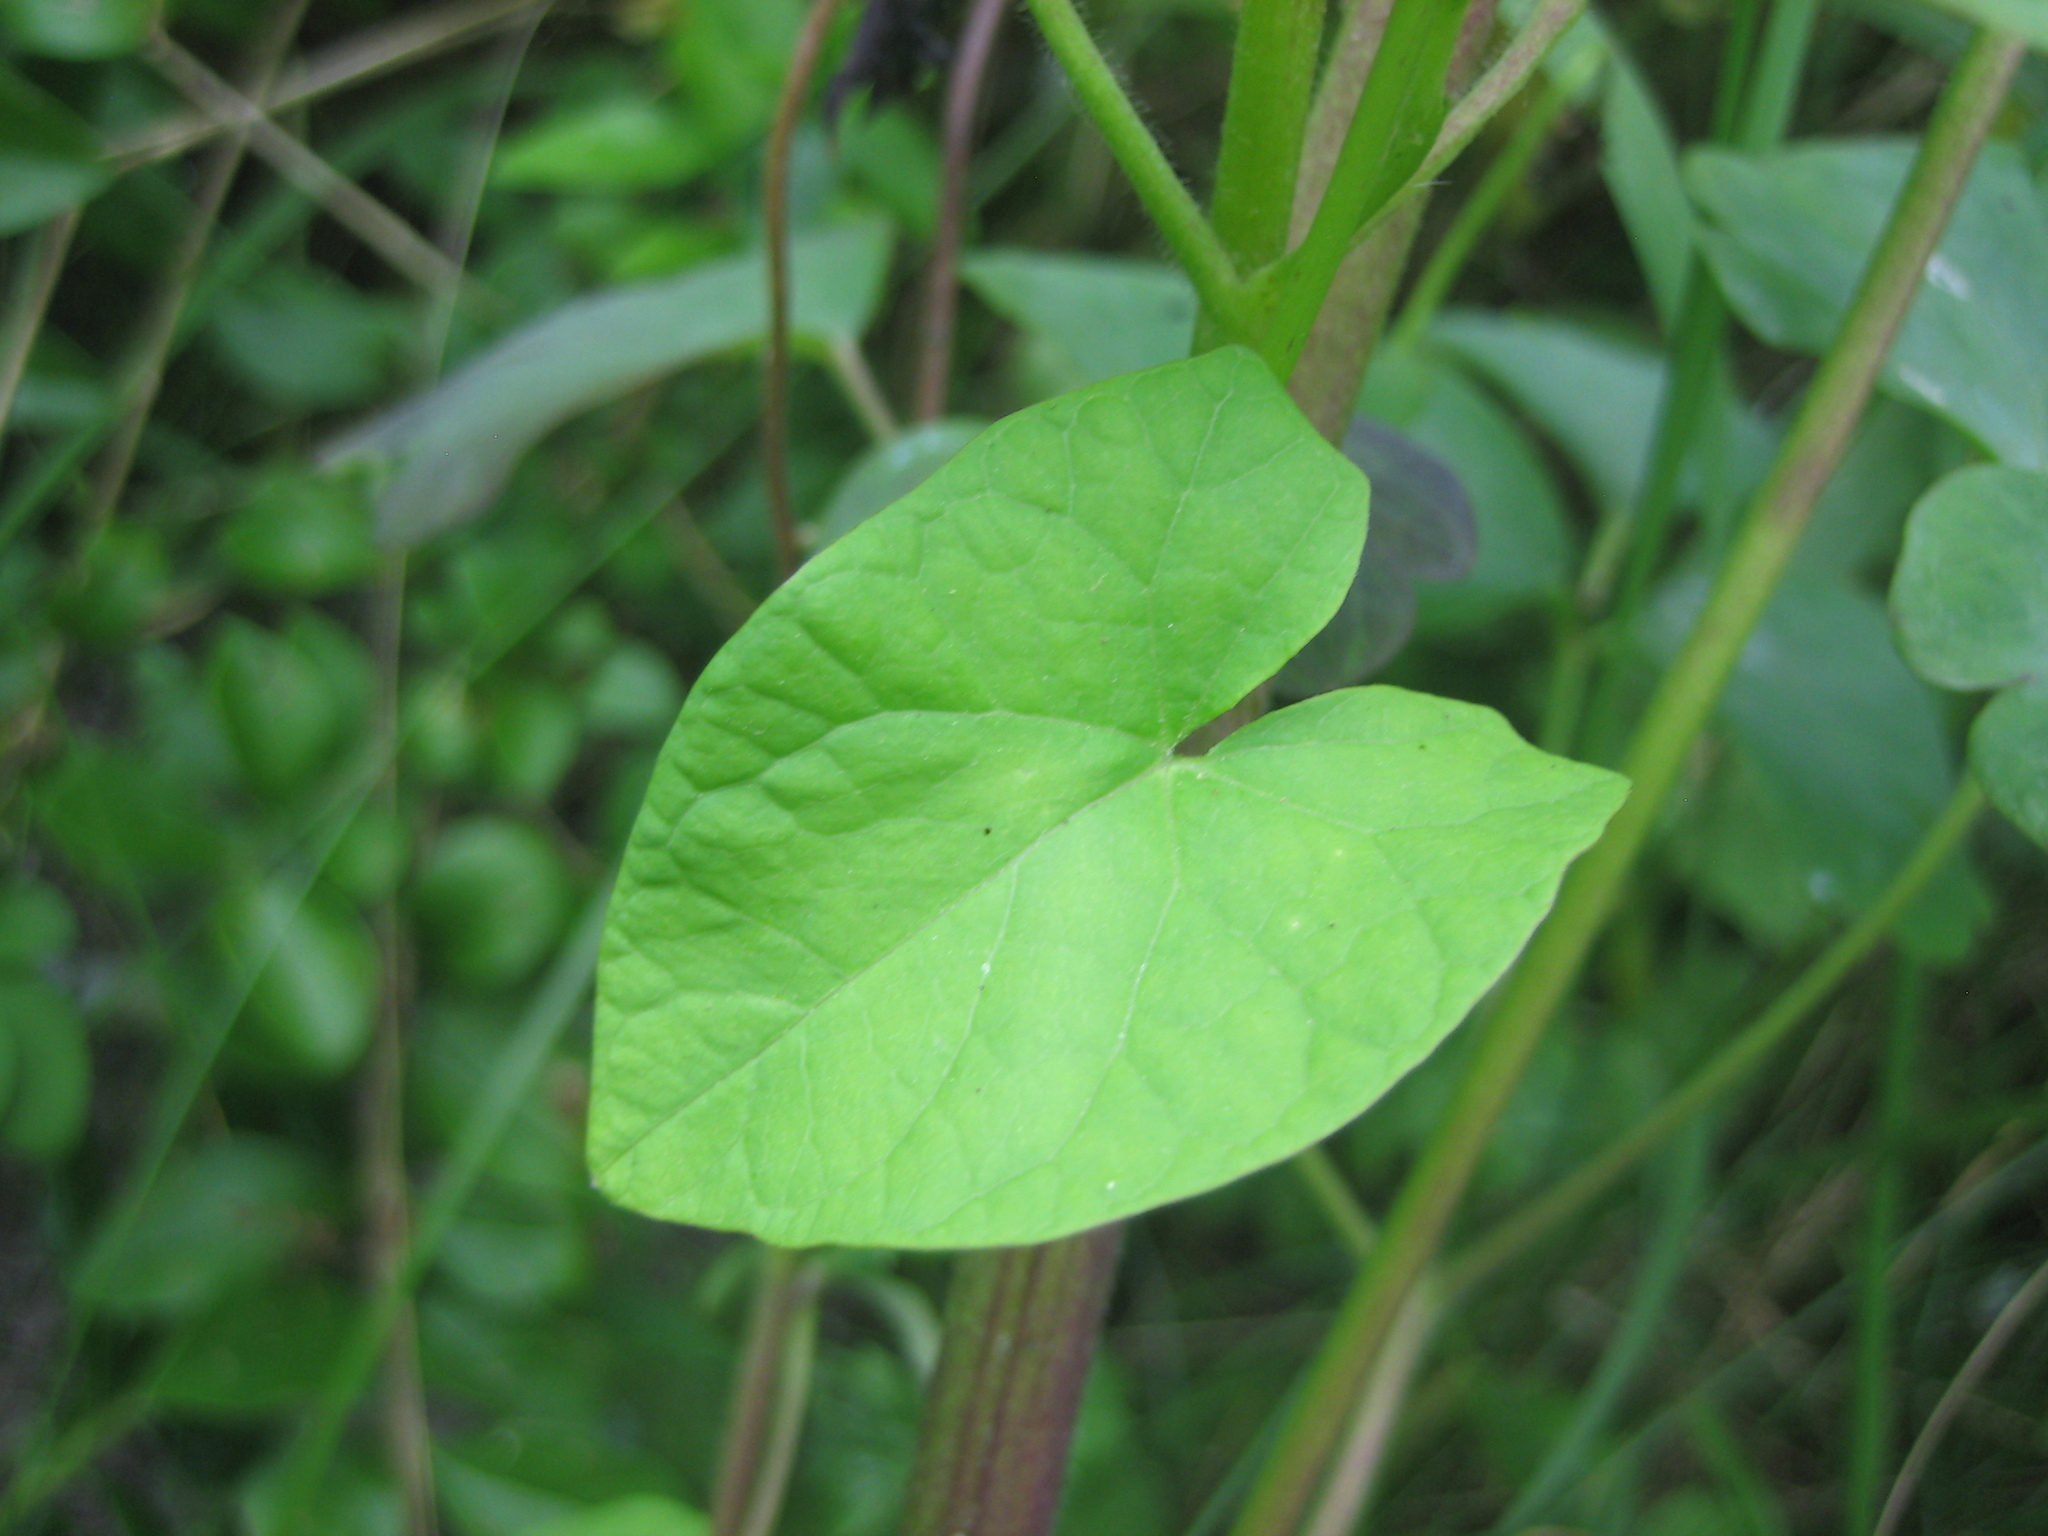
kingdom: Plantae
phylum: Tracheophyta
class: Magnoliopsida
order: Solanales
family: Convolvulaceae
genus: Calystegia
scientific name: Calystegia sepium
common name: Hedge bindweed
